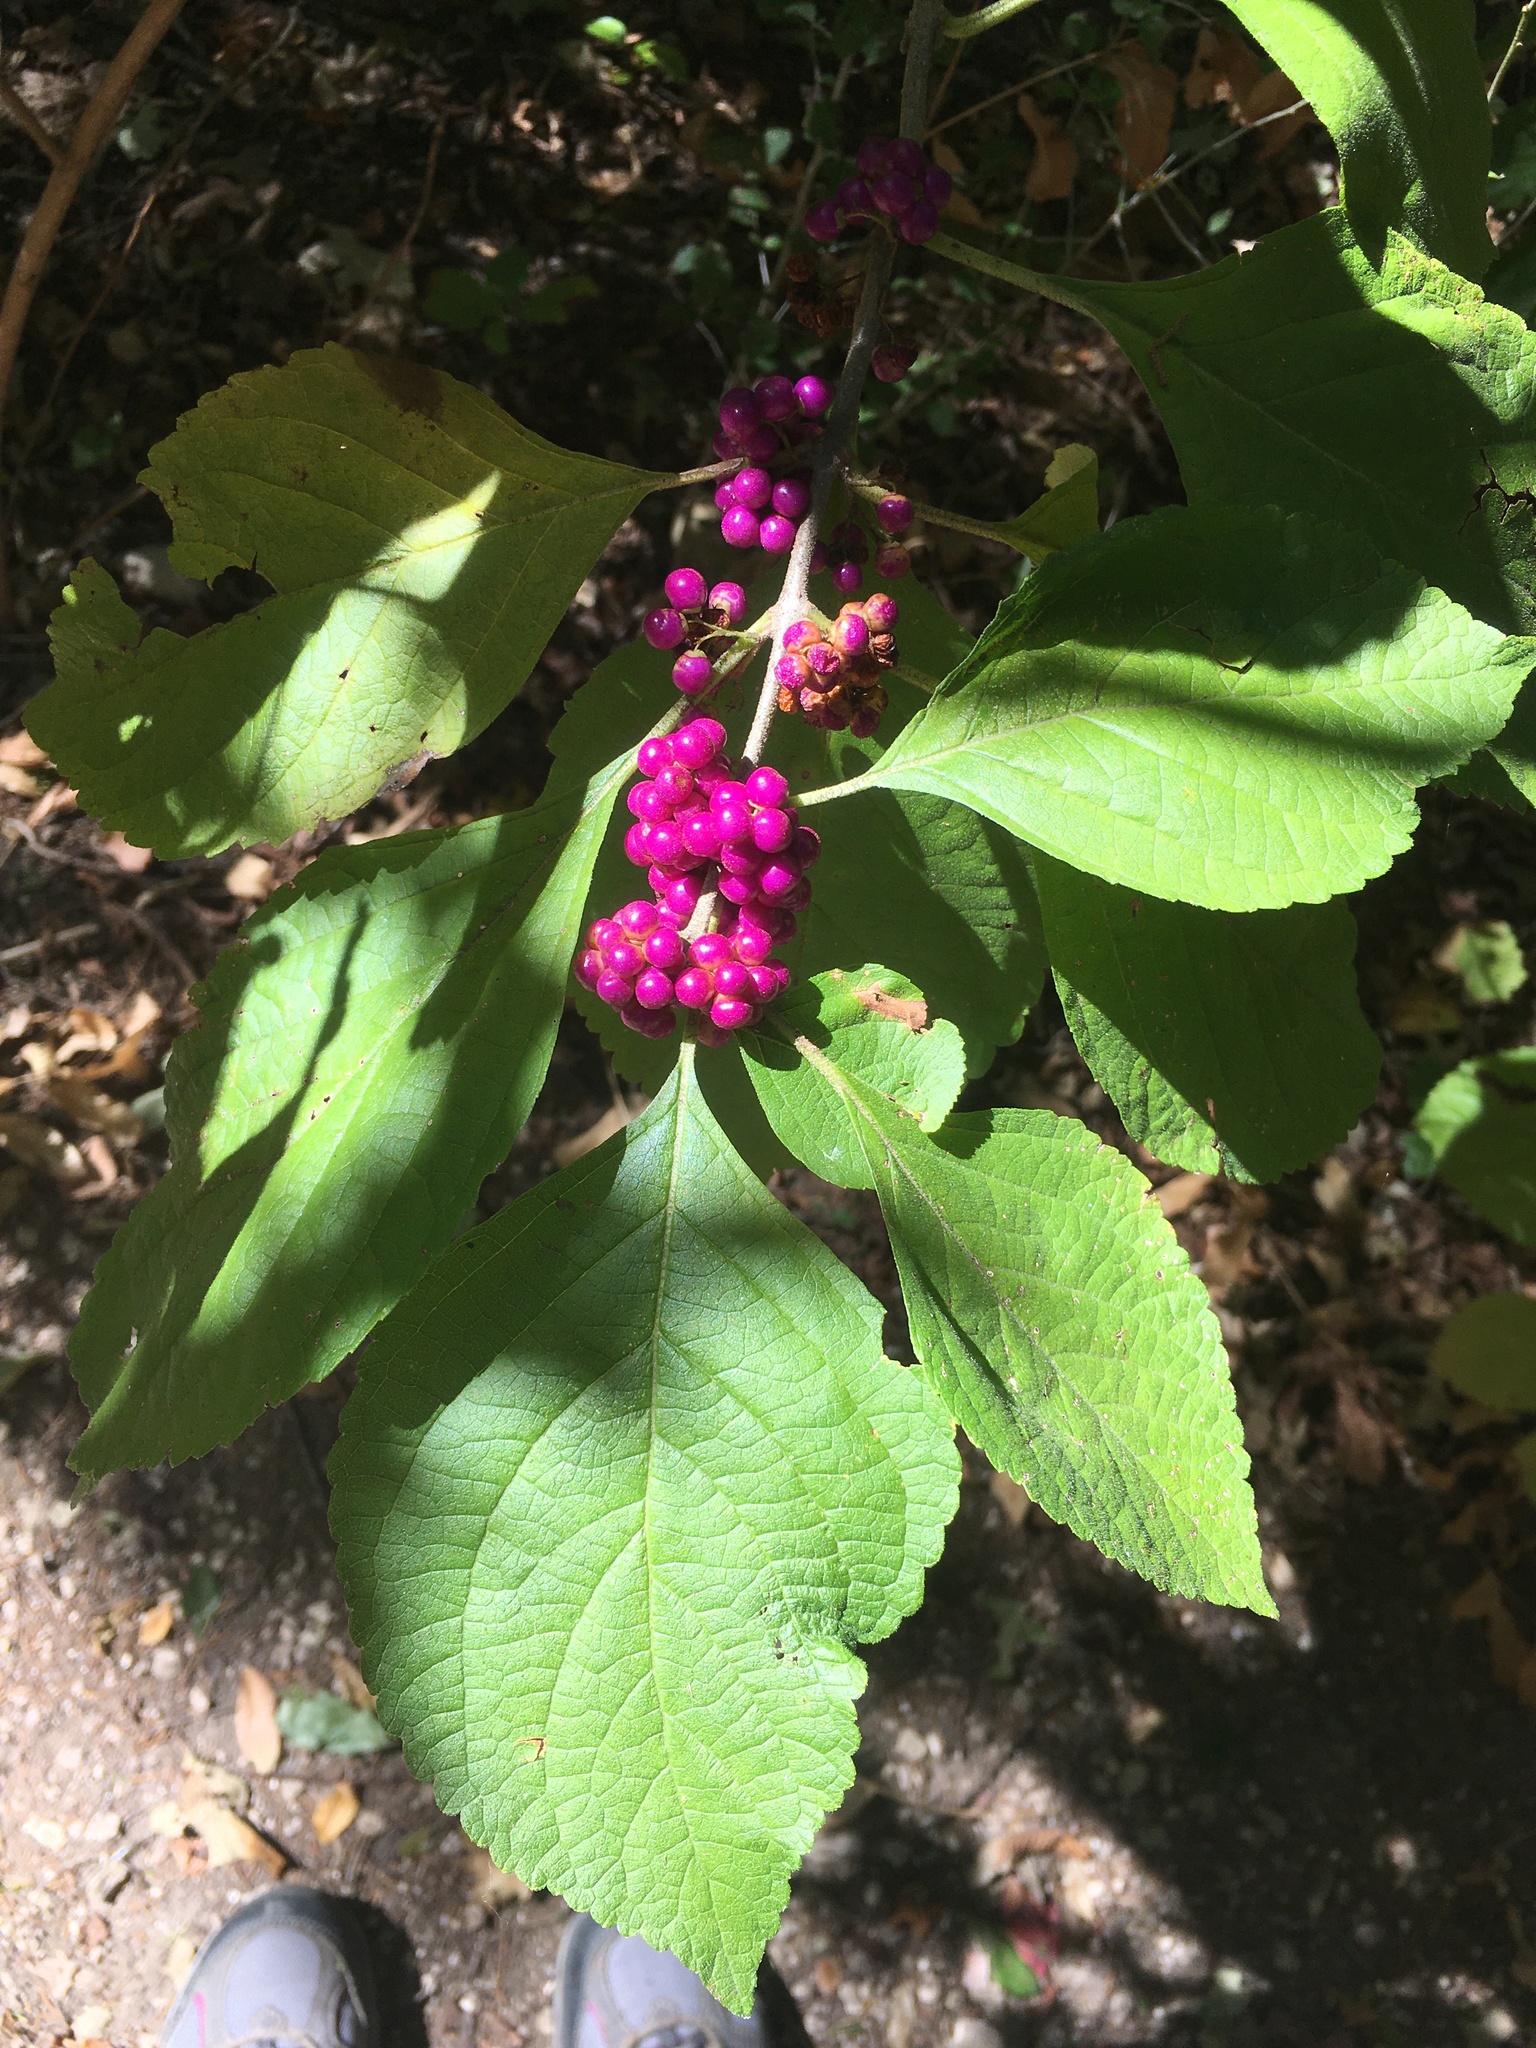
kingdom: Plantae
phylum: Tracheophyta
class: Magnoliopsida
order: Lamiales
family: Lamiaceae
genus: Callicarpa
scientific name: Callicarpa americana
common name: American beautyberry
